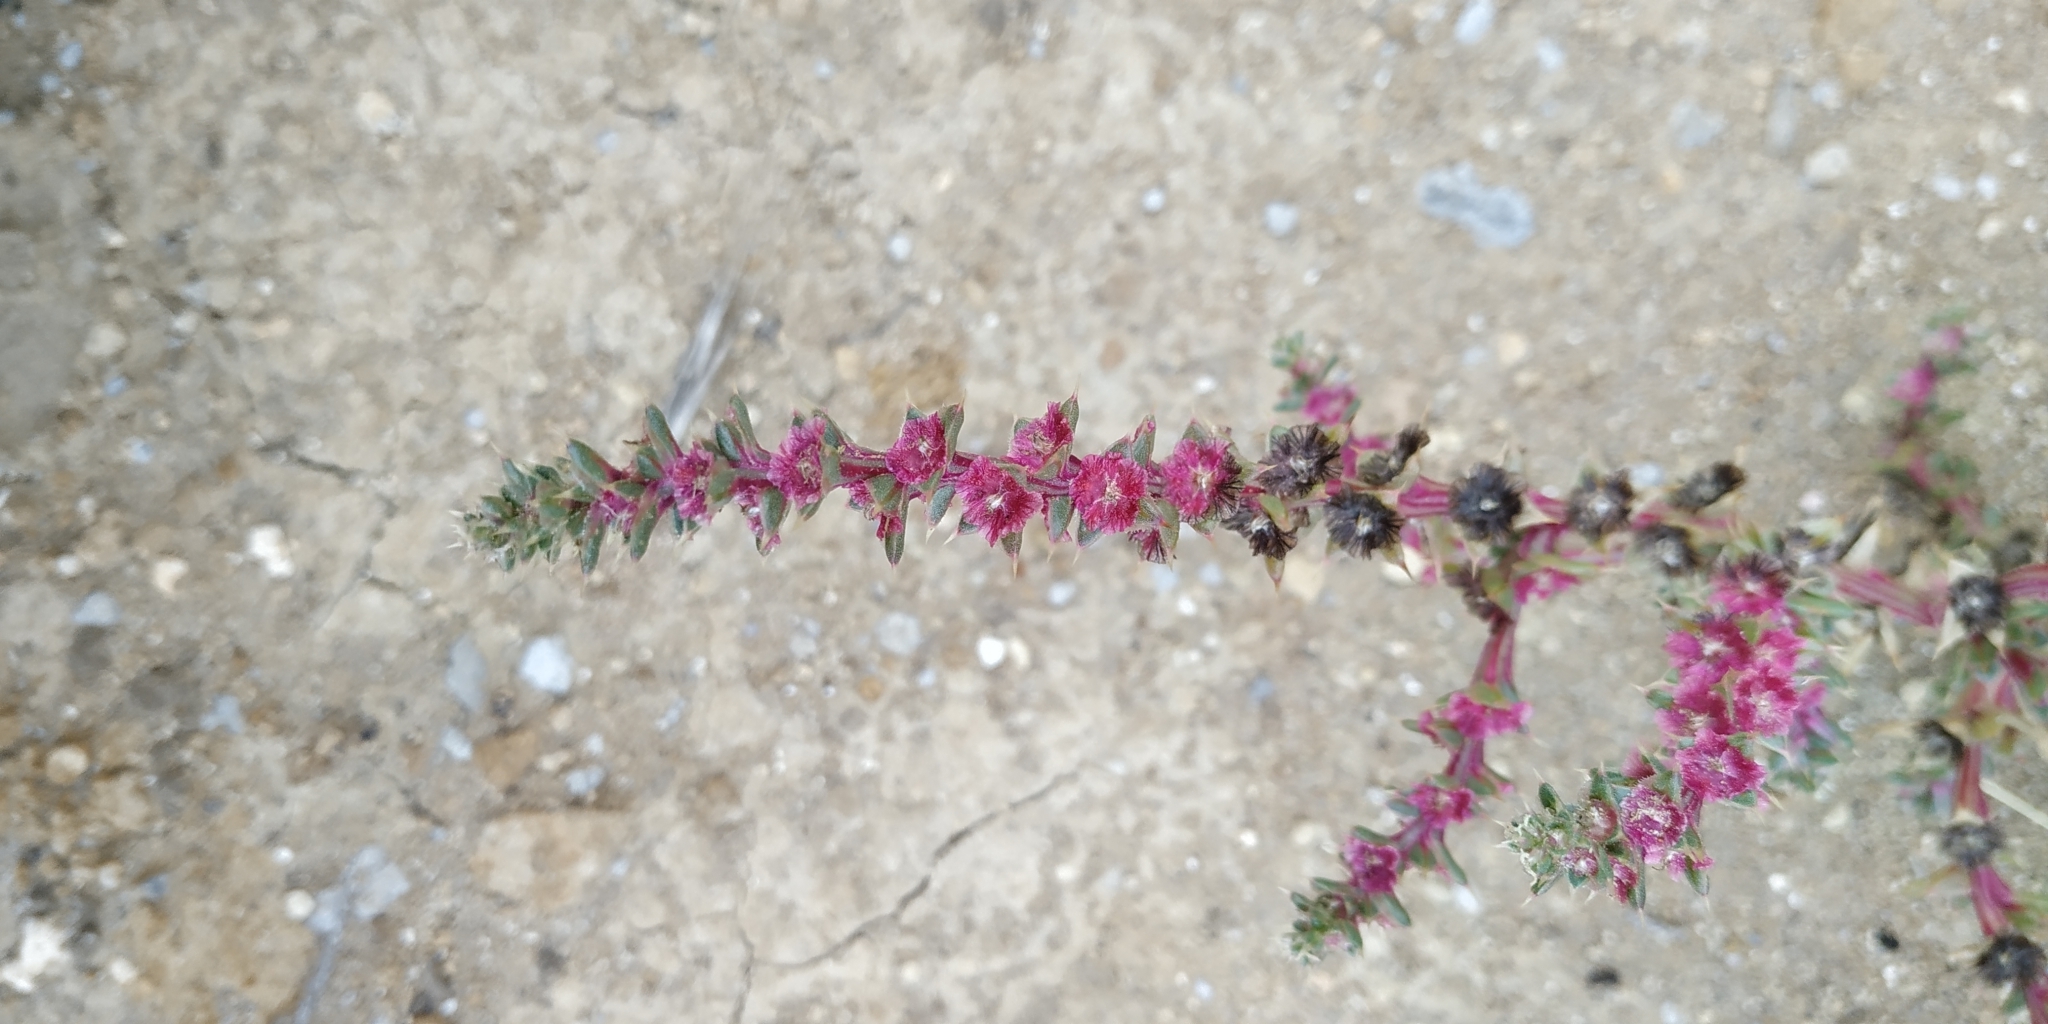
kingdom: Plantae
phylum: Tracheophyta
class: Magnoliopsida
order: Caryophyllales
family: Amaranthaceae
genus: Salsola
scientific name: Salsola tragus
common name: Prickly russian thistle
